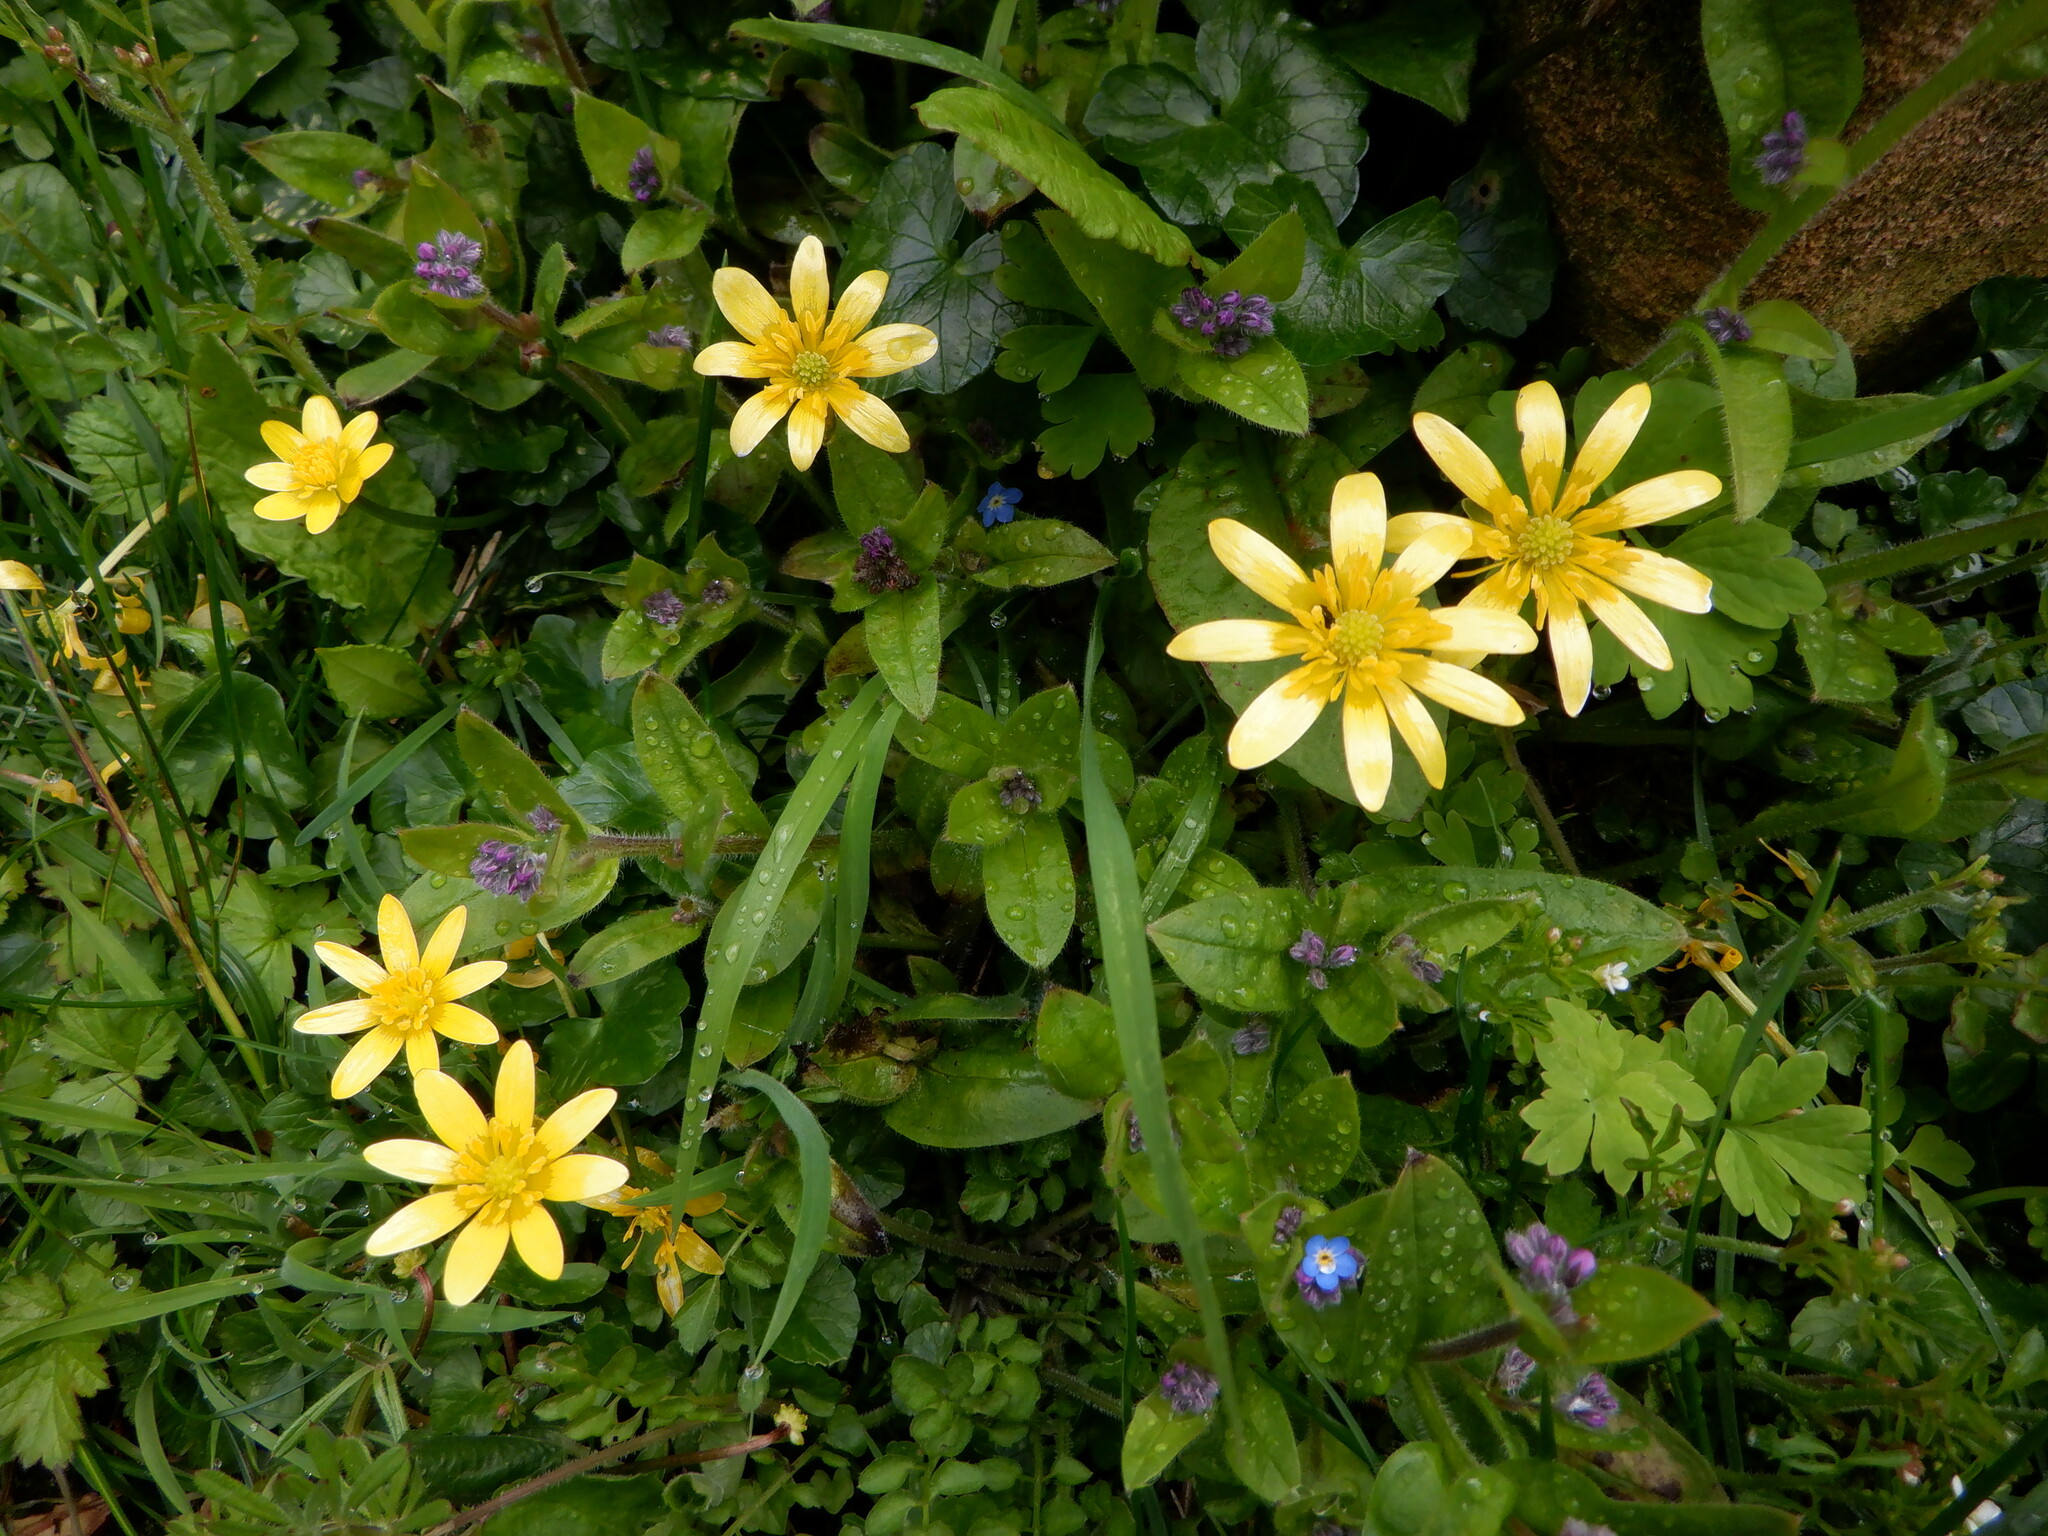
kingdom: Plantae
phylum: Tracheophyta
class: Magnoliopsida
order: Ranunculales
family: Ranunculaceae
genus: Ficaria
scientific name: Ficaria verna
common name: Lesser celandine
